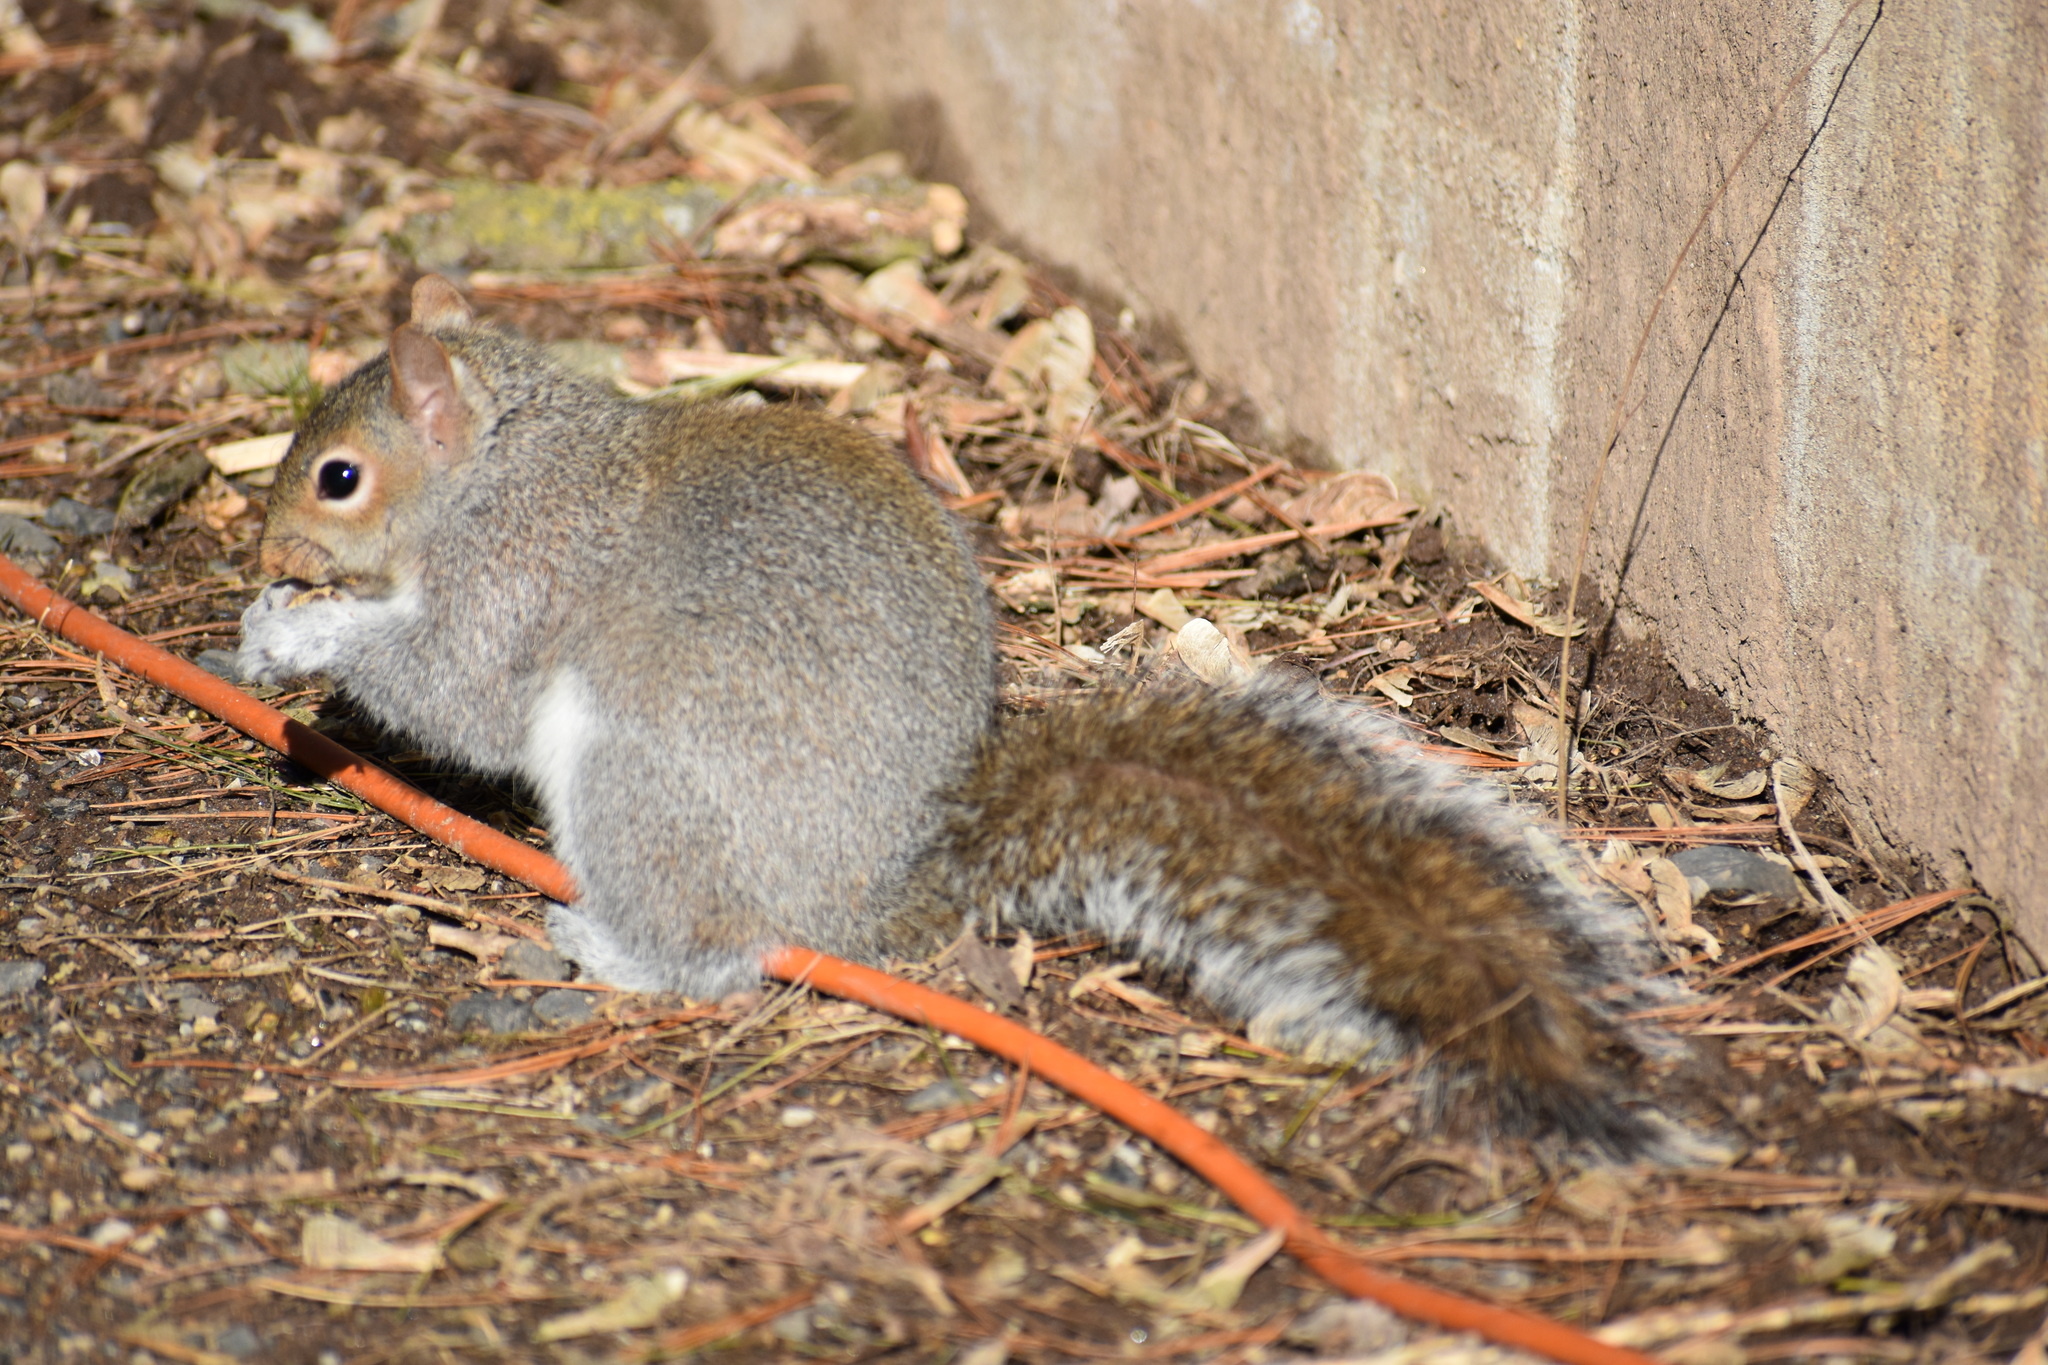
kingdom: Animalia
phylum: Chordata
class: Mammalia
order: Rodentia
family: Sciuridae
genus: Sciurus
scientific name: Sciurus carolinensis
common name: Eastern gray squirrel
